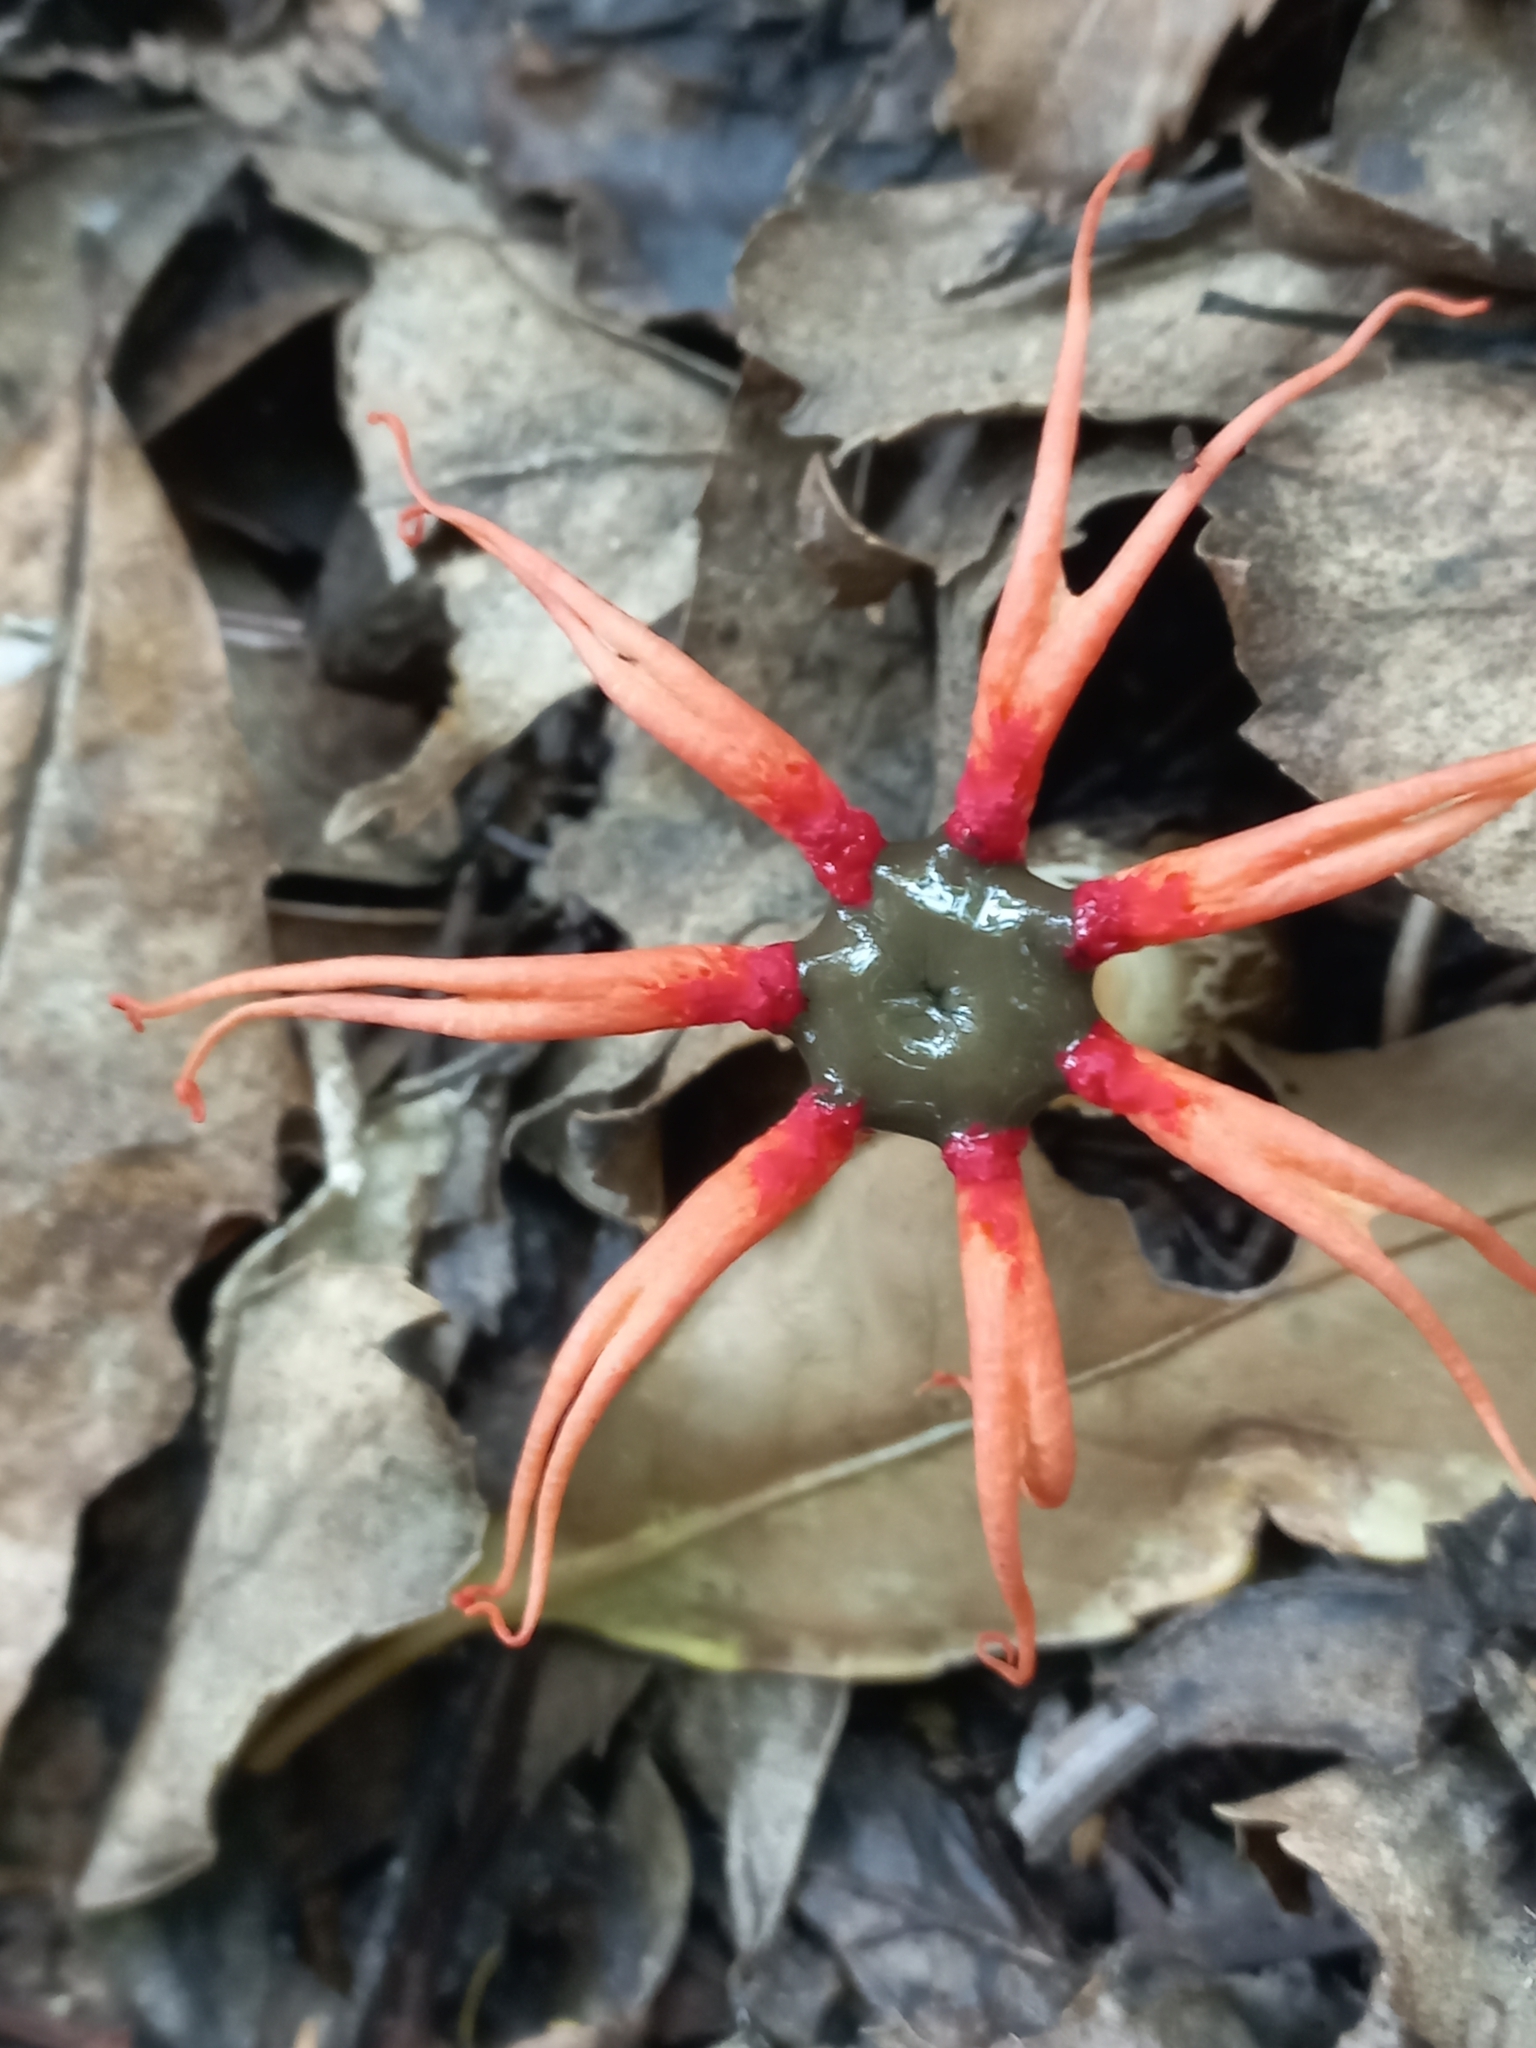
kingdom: Fungi
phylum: Basidiomycota
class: Agaricomycetes
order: Phallales
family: Phallaceae
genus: Aseroe
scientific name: Aseroe rubra
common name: Starfish fungus
